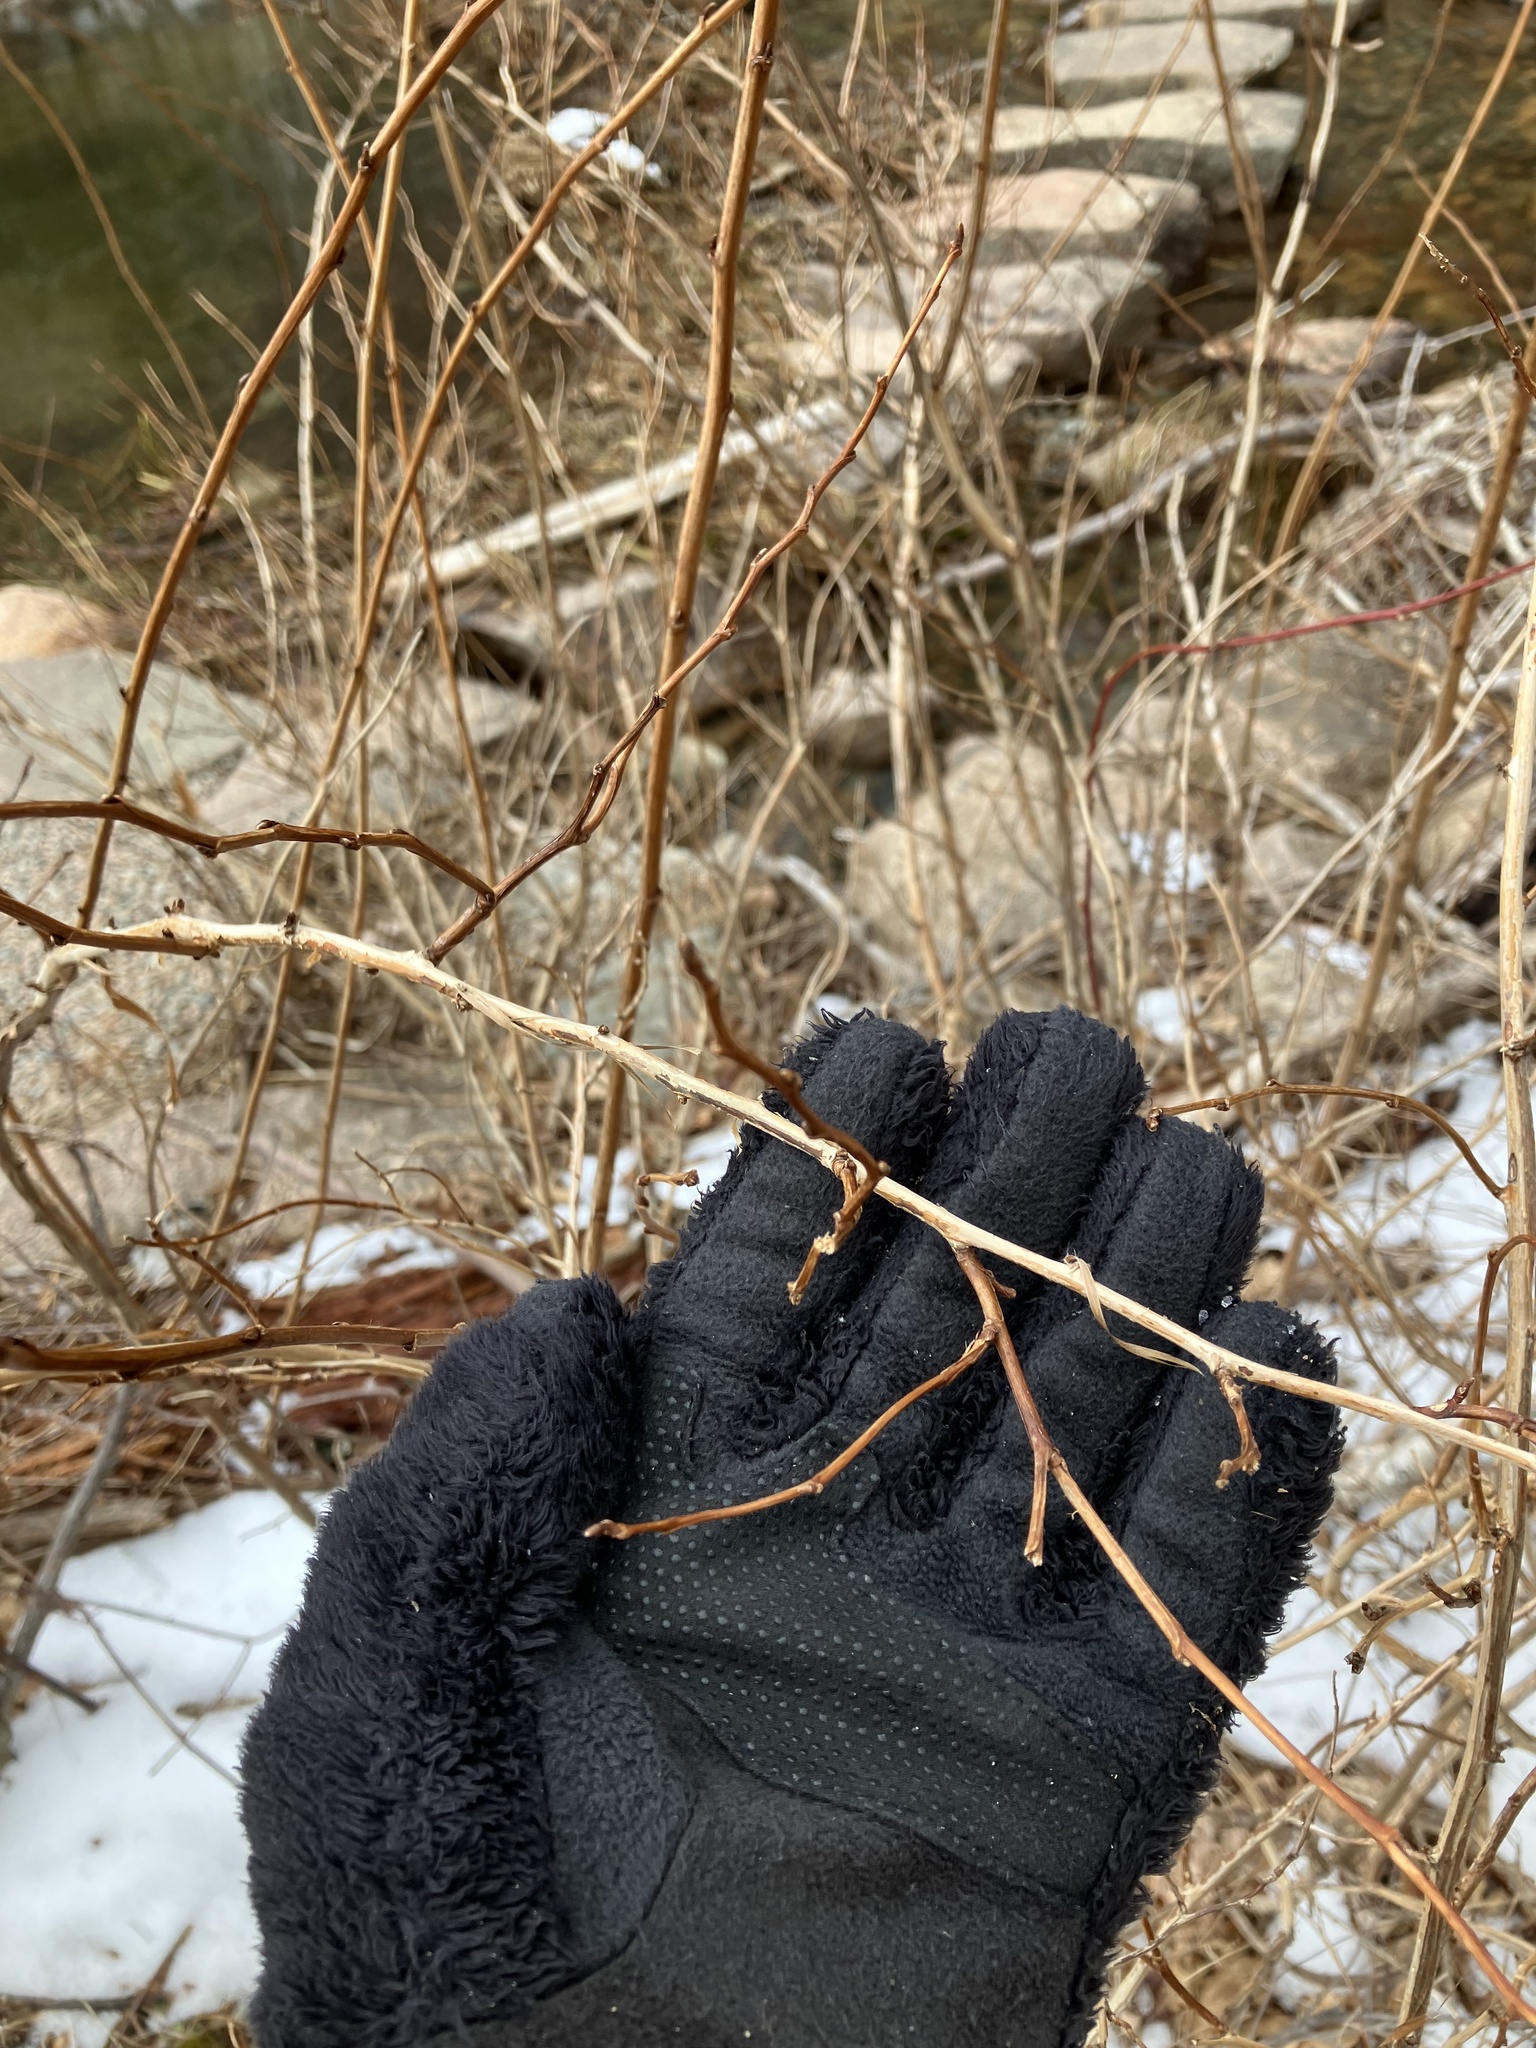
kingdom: Plantae
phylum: Tracheophyta
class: Magnoliopsida
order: Rosales
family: Rosaceae
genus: Physocarpus
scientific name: Physocarpus opulifolius
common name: Ninebark
